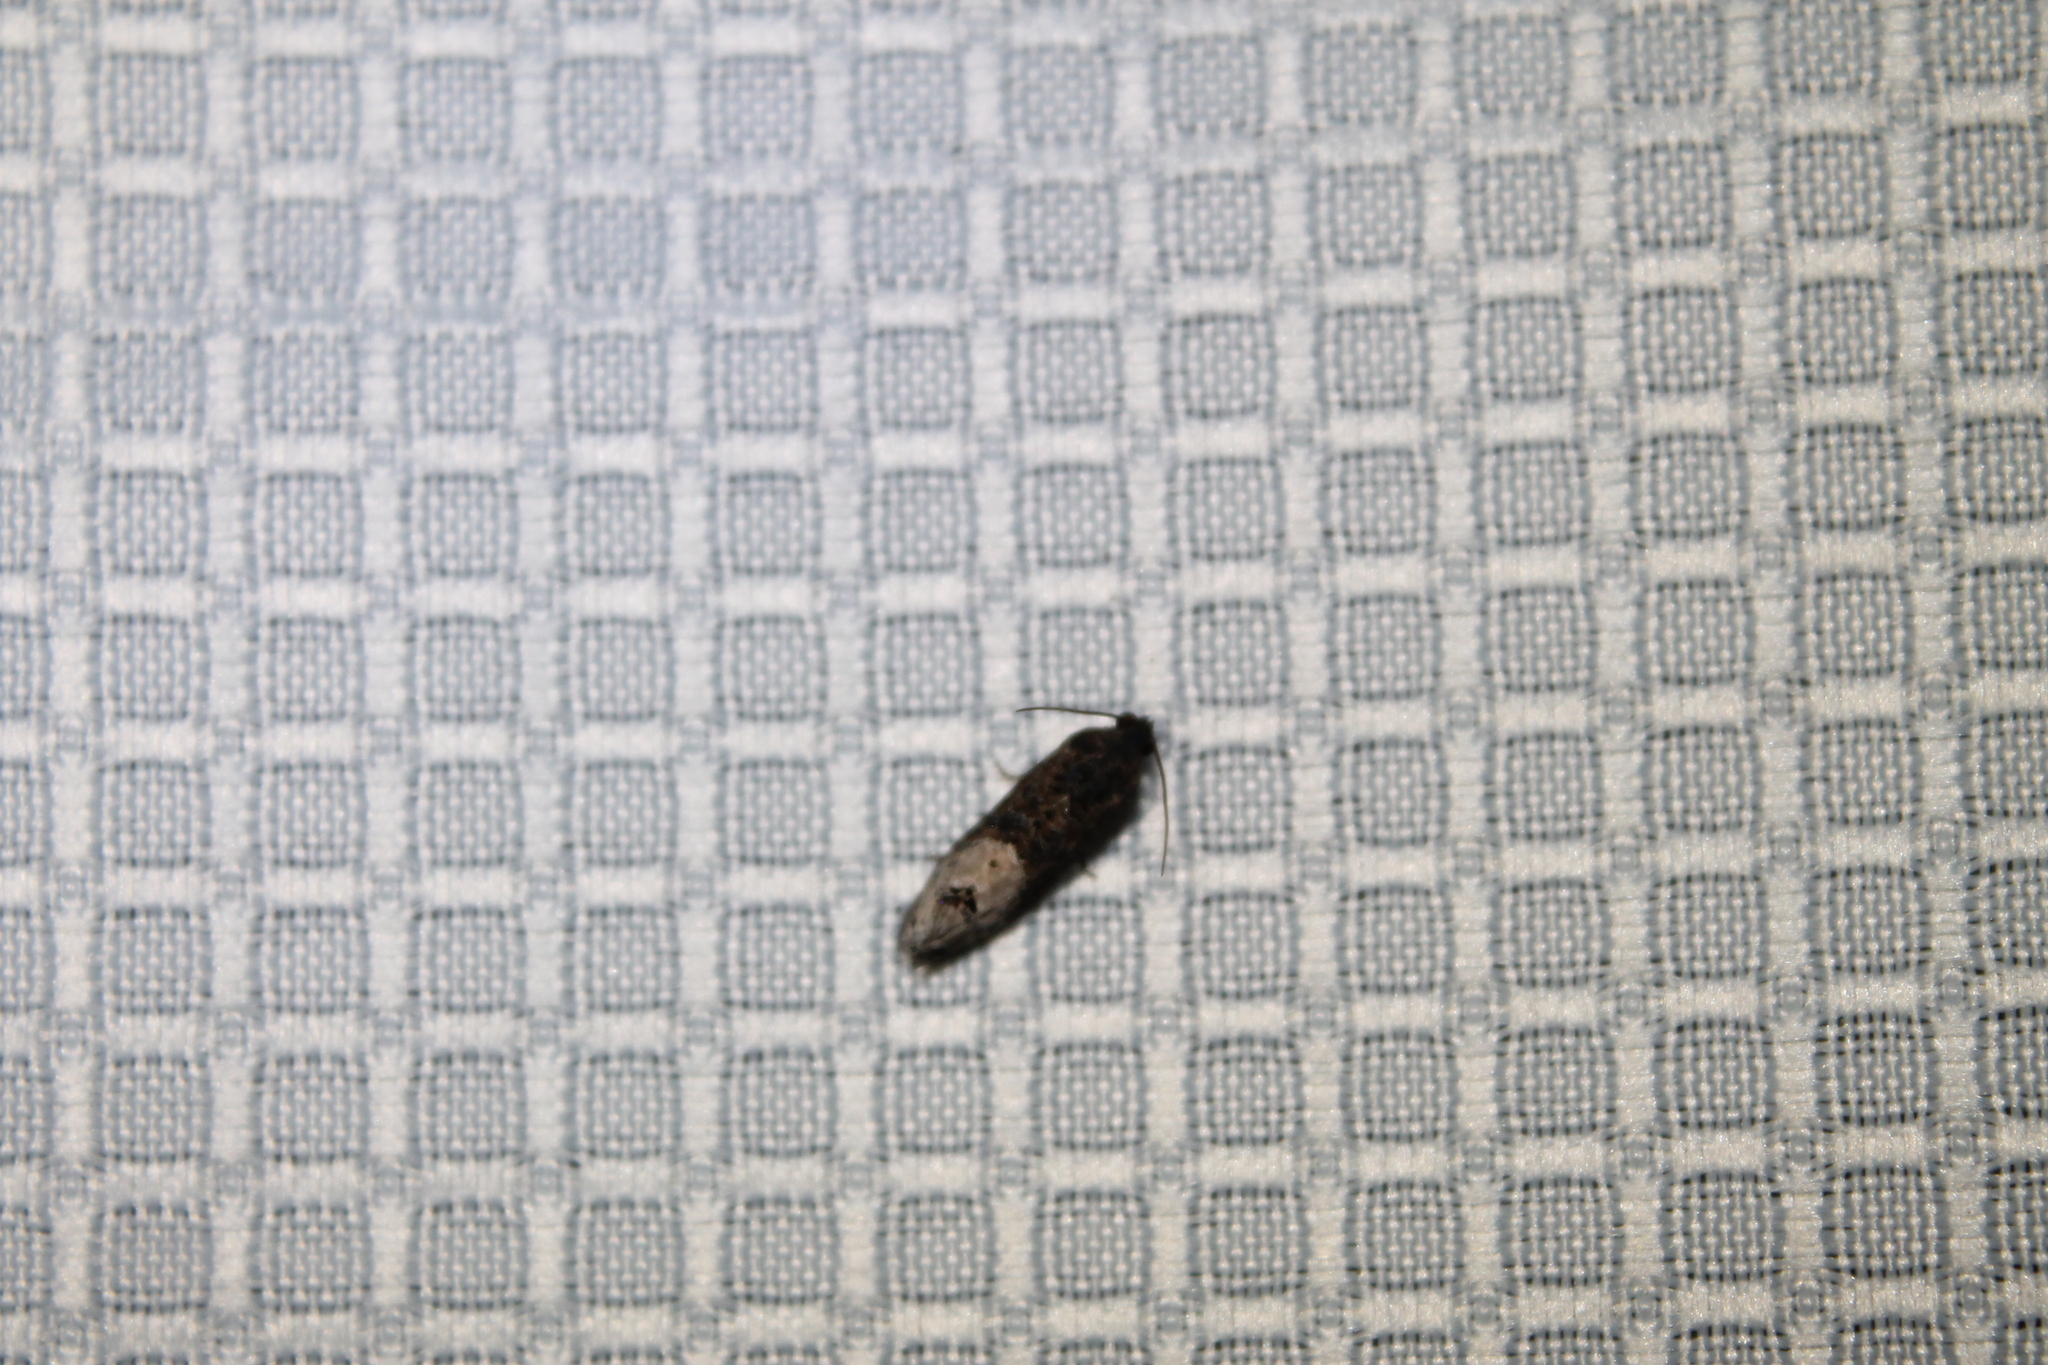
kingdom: Animalia
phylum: Arthropoda
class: Insecta
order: Lepidoptera
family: Tortricidae
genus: Ecdytolopha
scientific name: Ecdytolopha insiticiana
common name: Locust twig borer moth
